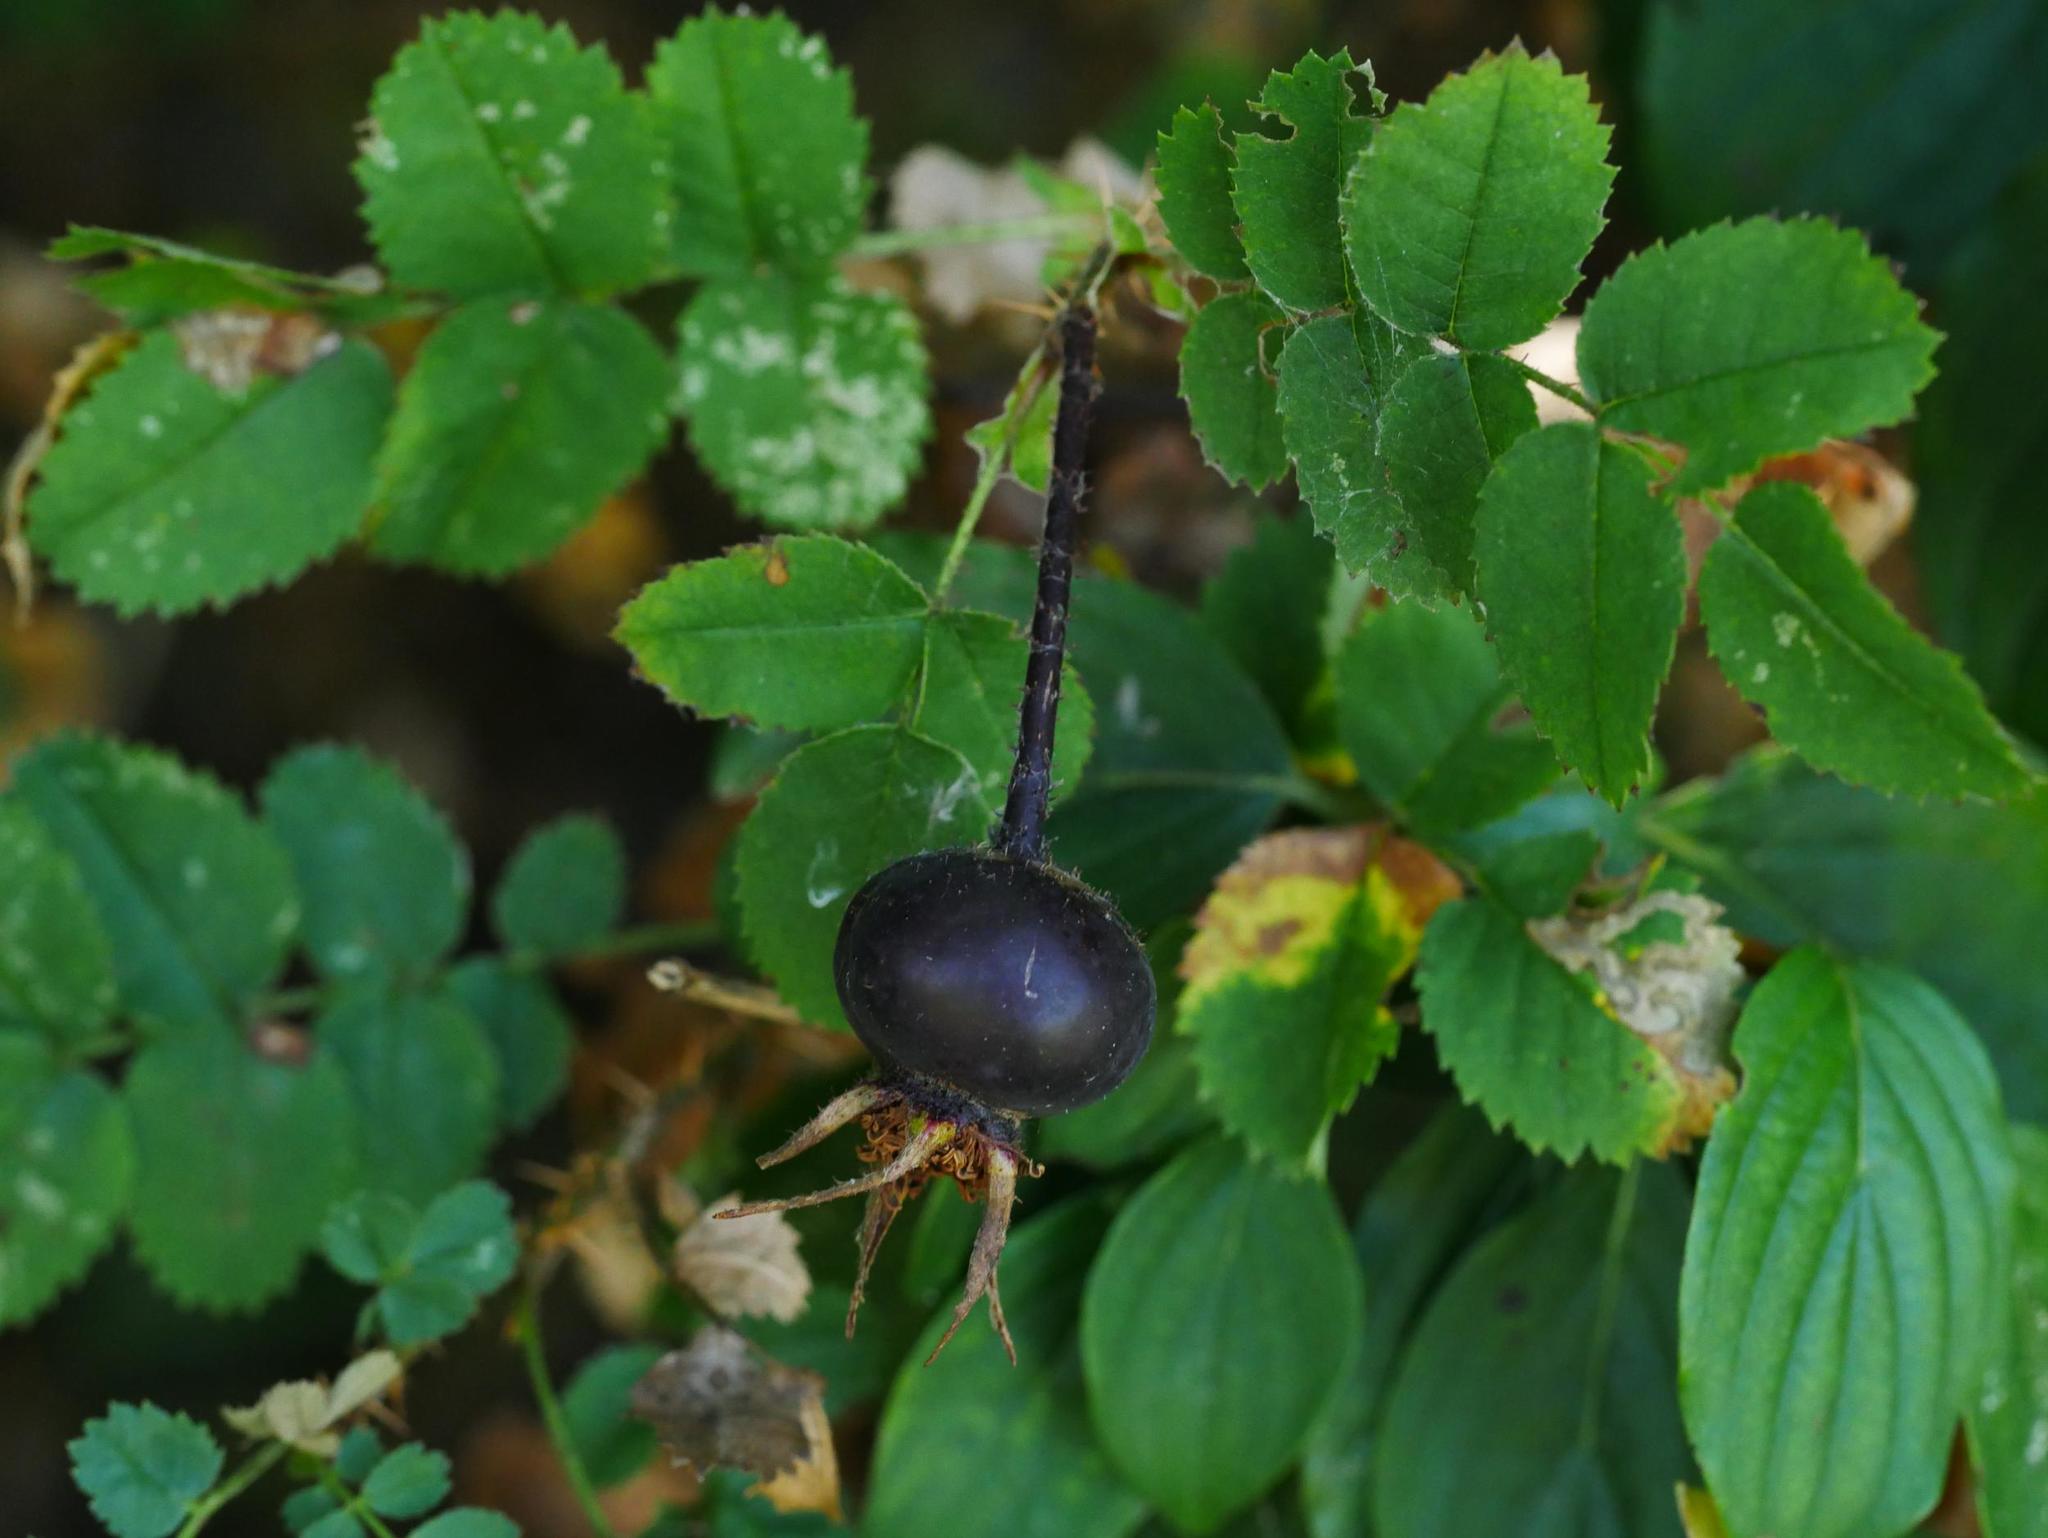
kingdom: Plantae
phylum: Tracheophyta
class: Magnoliopsida
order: Rosales
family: Rosaceae
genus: Rosa
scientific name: Rosa spinosissima
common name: Burnet rose
